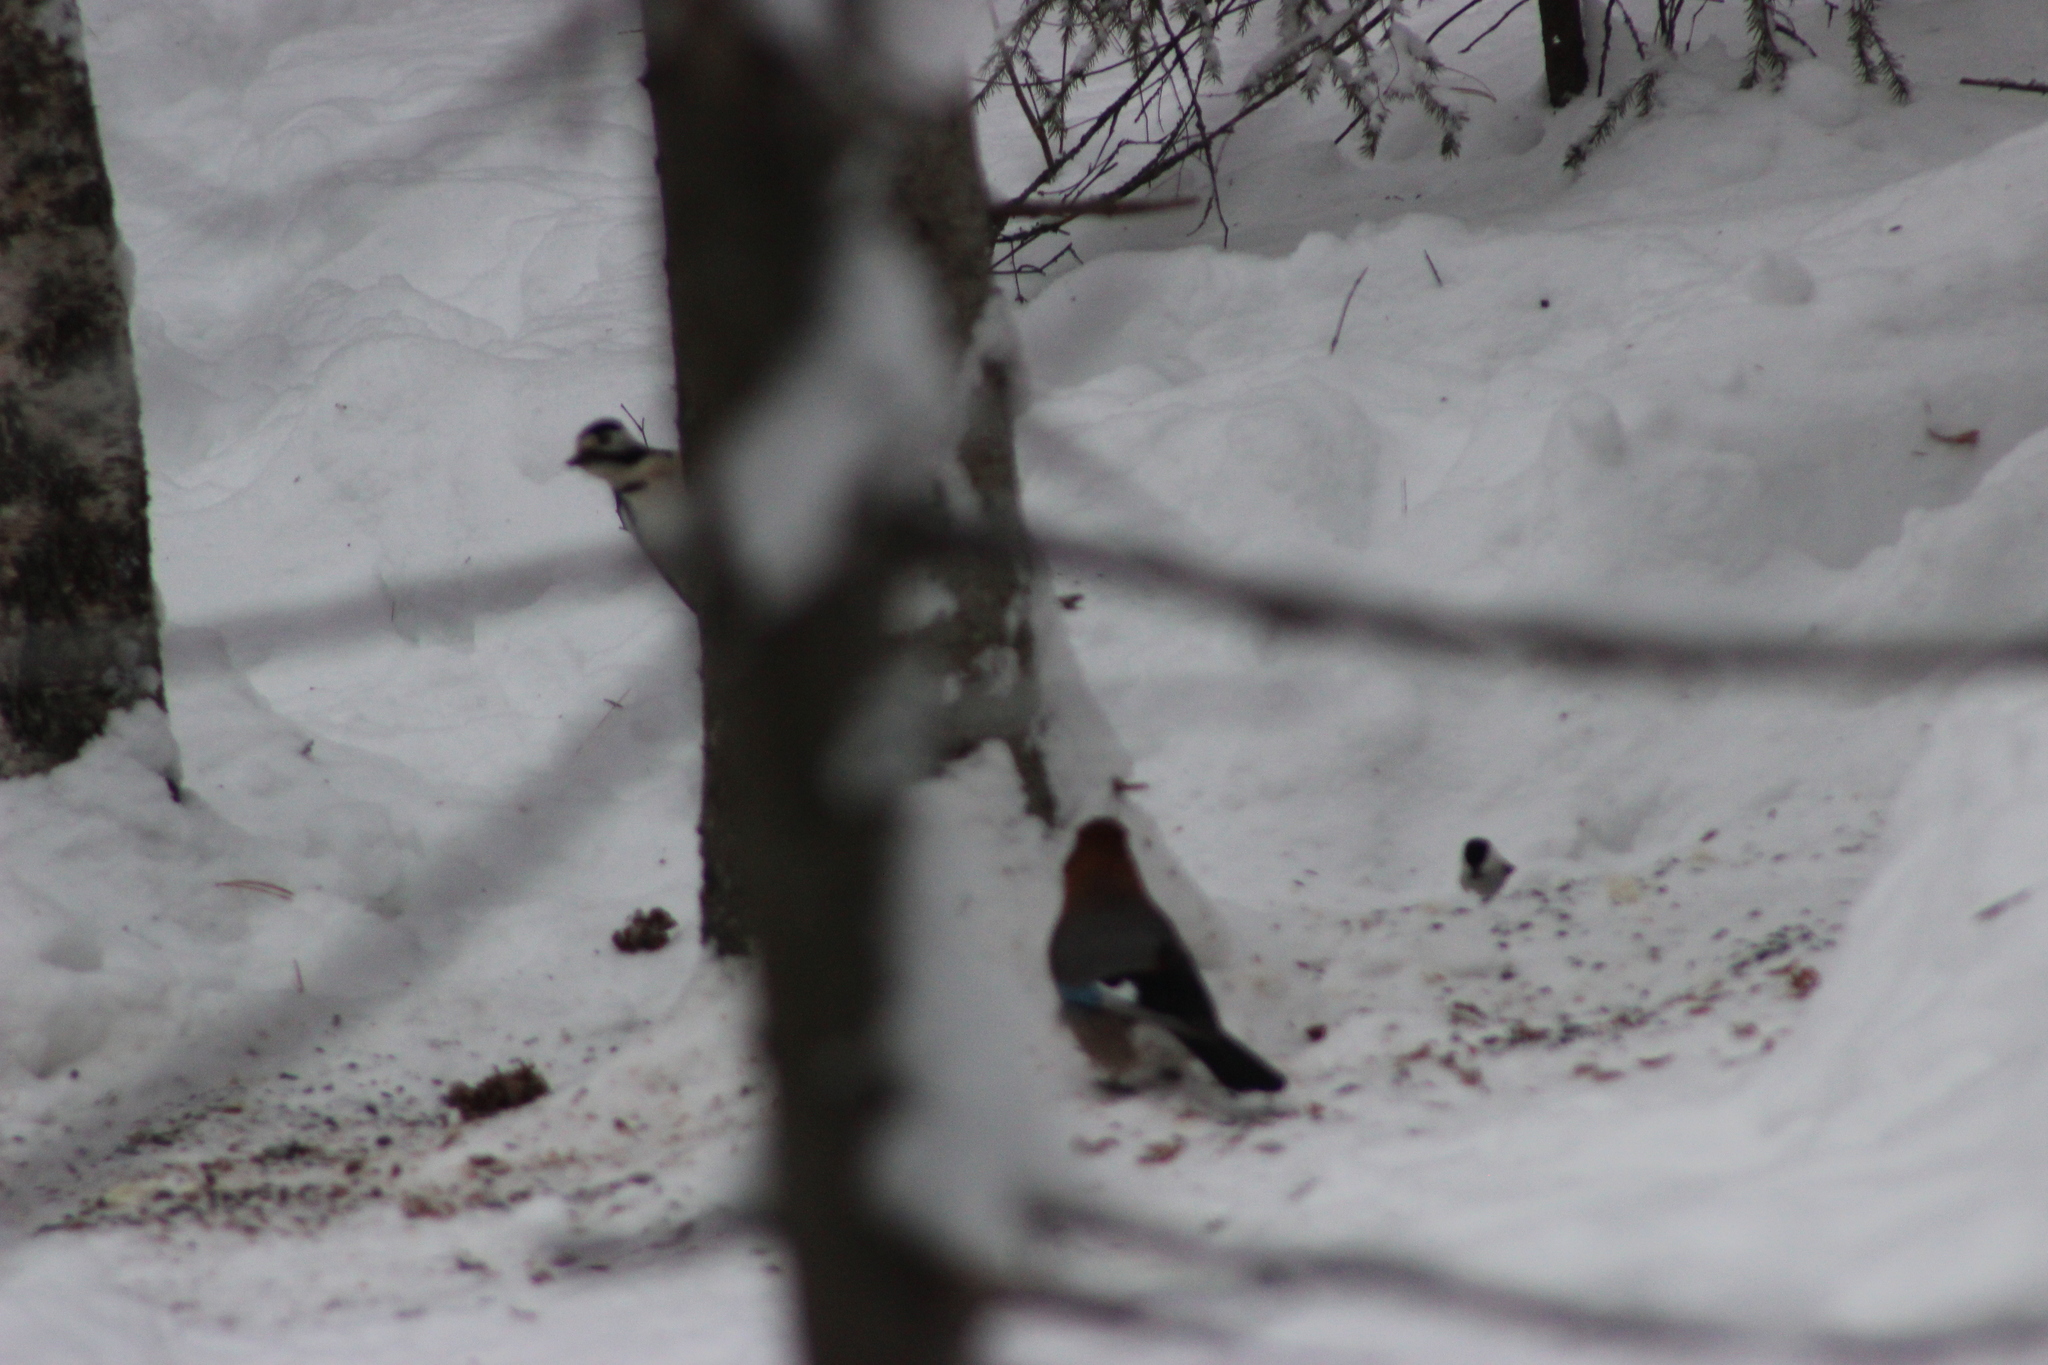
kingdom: Animalia
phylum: Chordata
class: Aves
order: Passeriformes
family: Corvidae
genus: Garrulus
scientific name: Garrulus glandarius
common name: Eurasian jay
